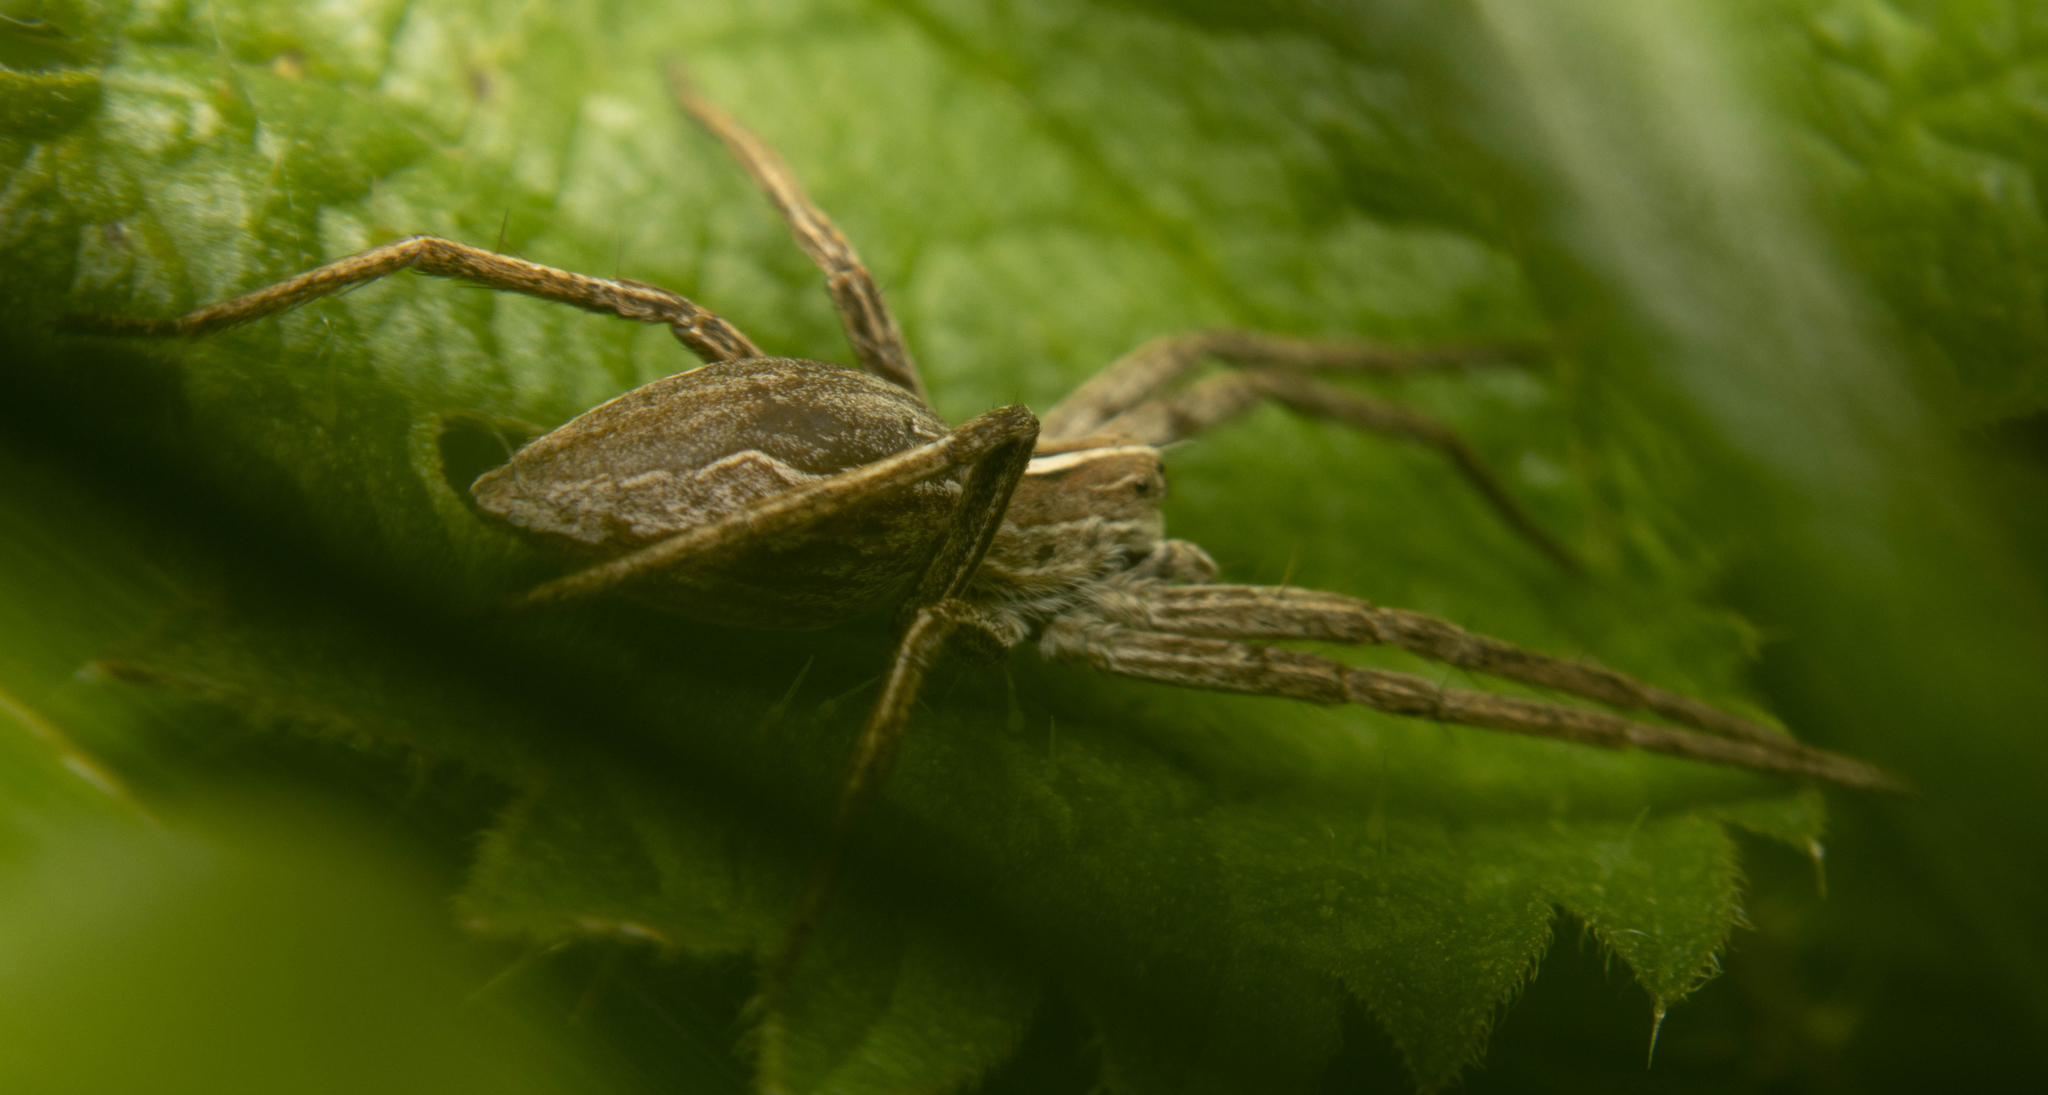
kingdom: Animalia
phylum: Arthropoda
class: Arachnida
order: Araneae
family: Pisauridae
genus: Pisaura
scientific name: Pisaura mirabilis
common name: Tent spider
